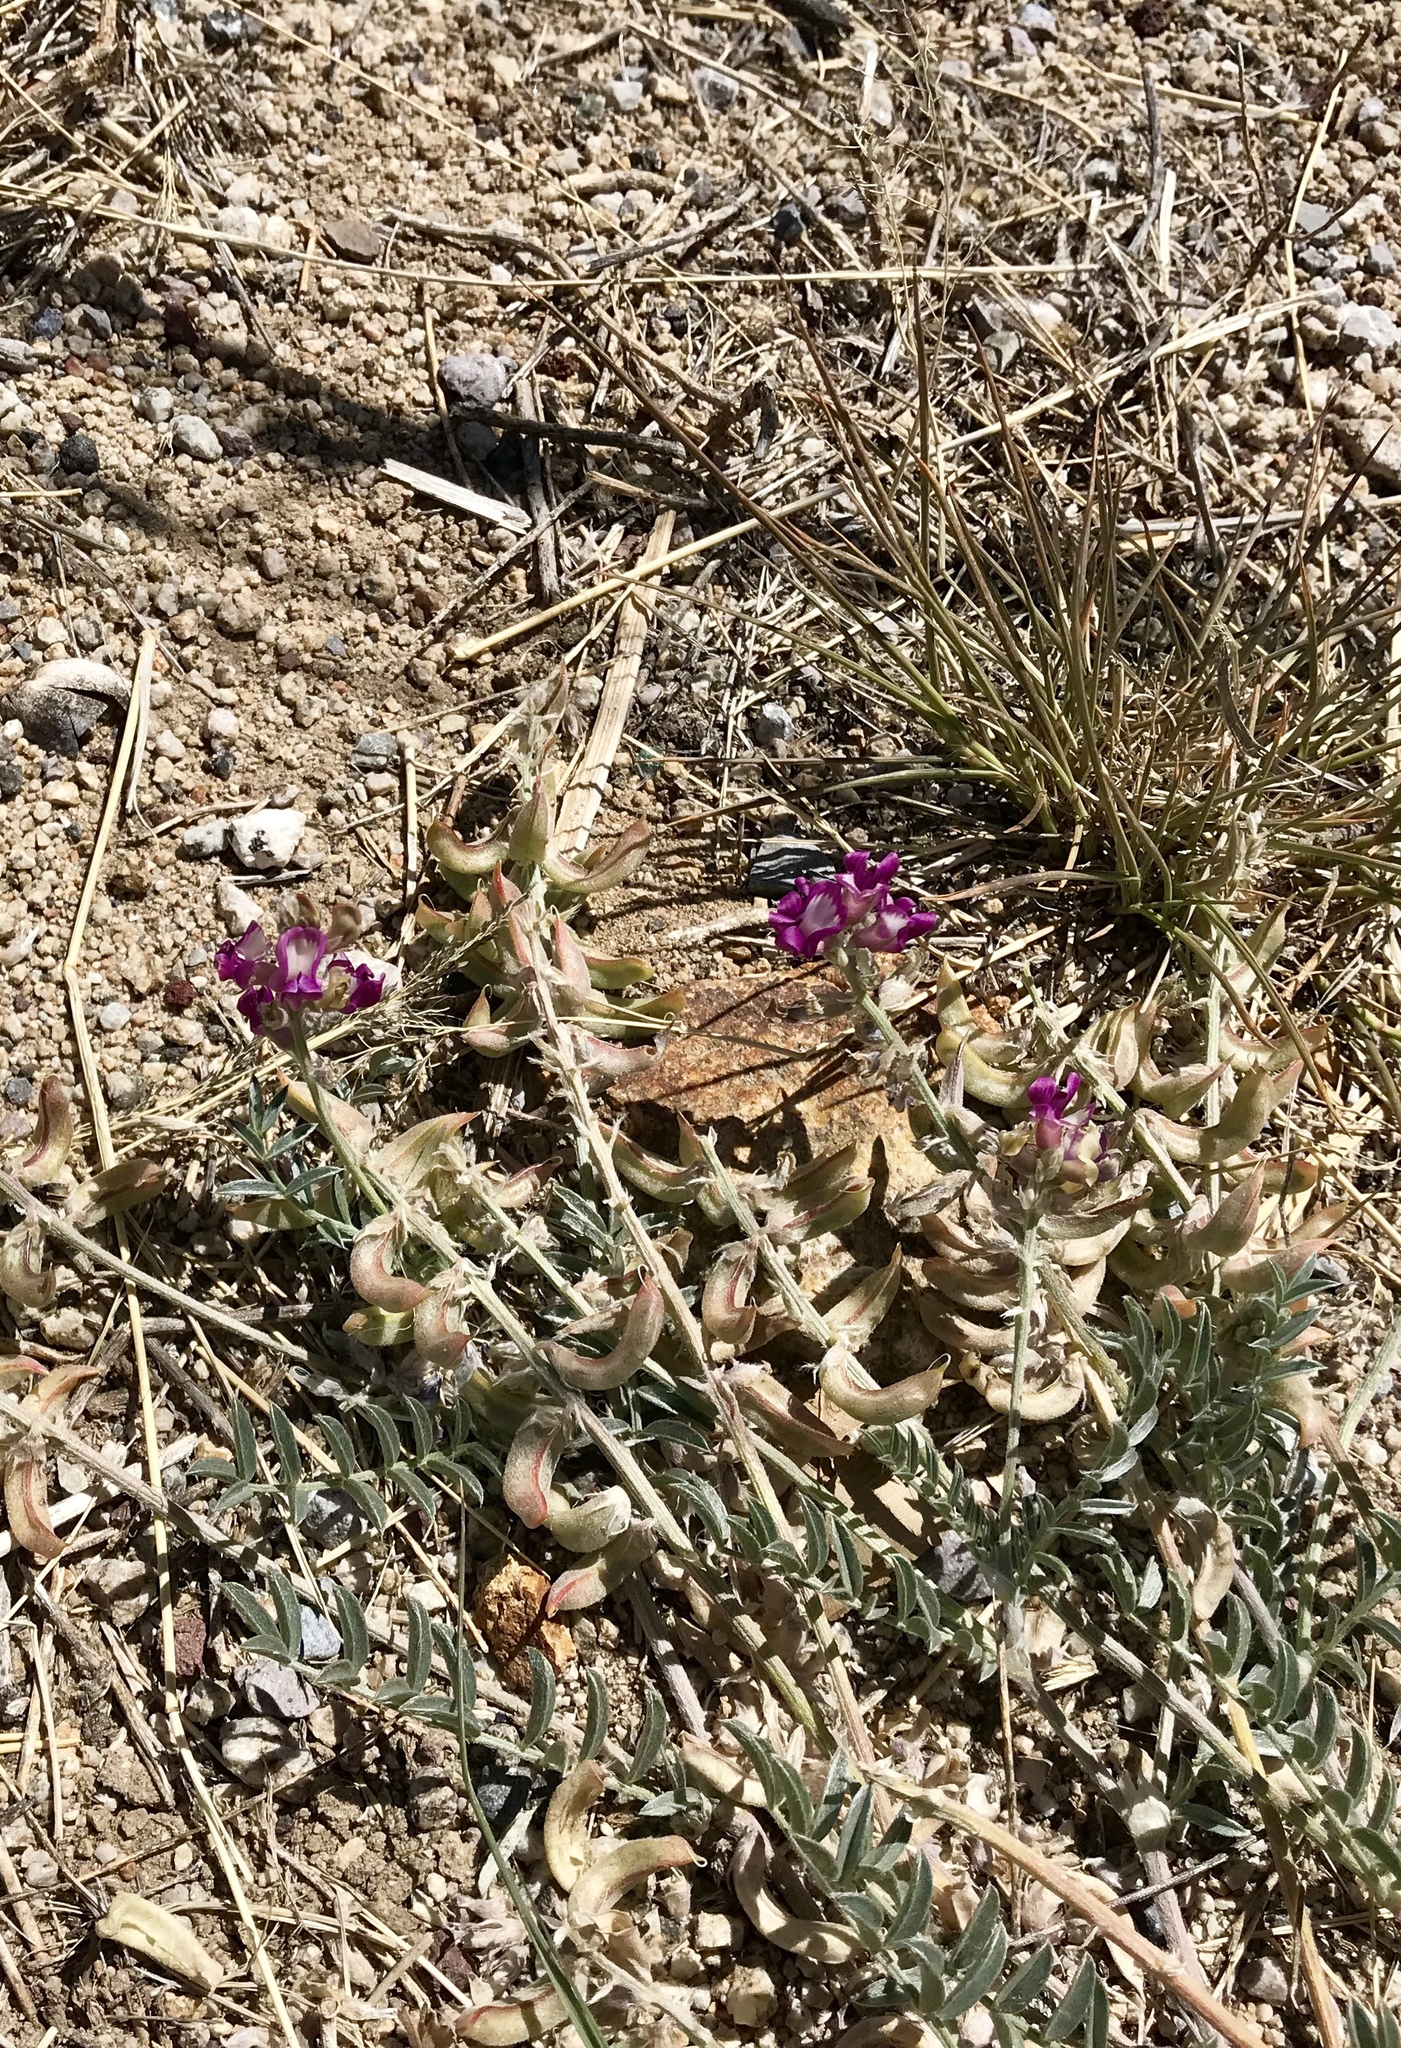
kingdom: Plantae
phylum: Tracheophyta
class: Magnoliopsida
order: Fabales
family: Fabaceae
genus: Astragalus
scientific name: Astragalus humistratus
